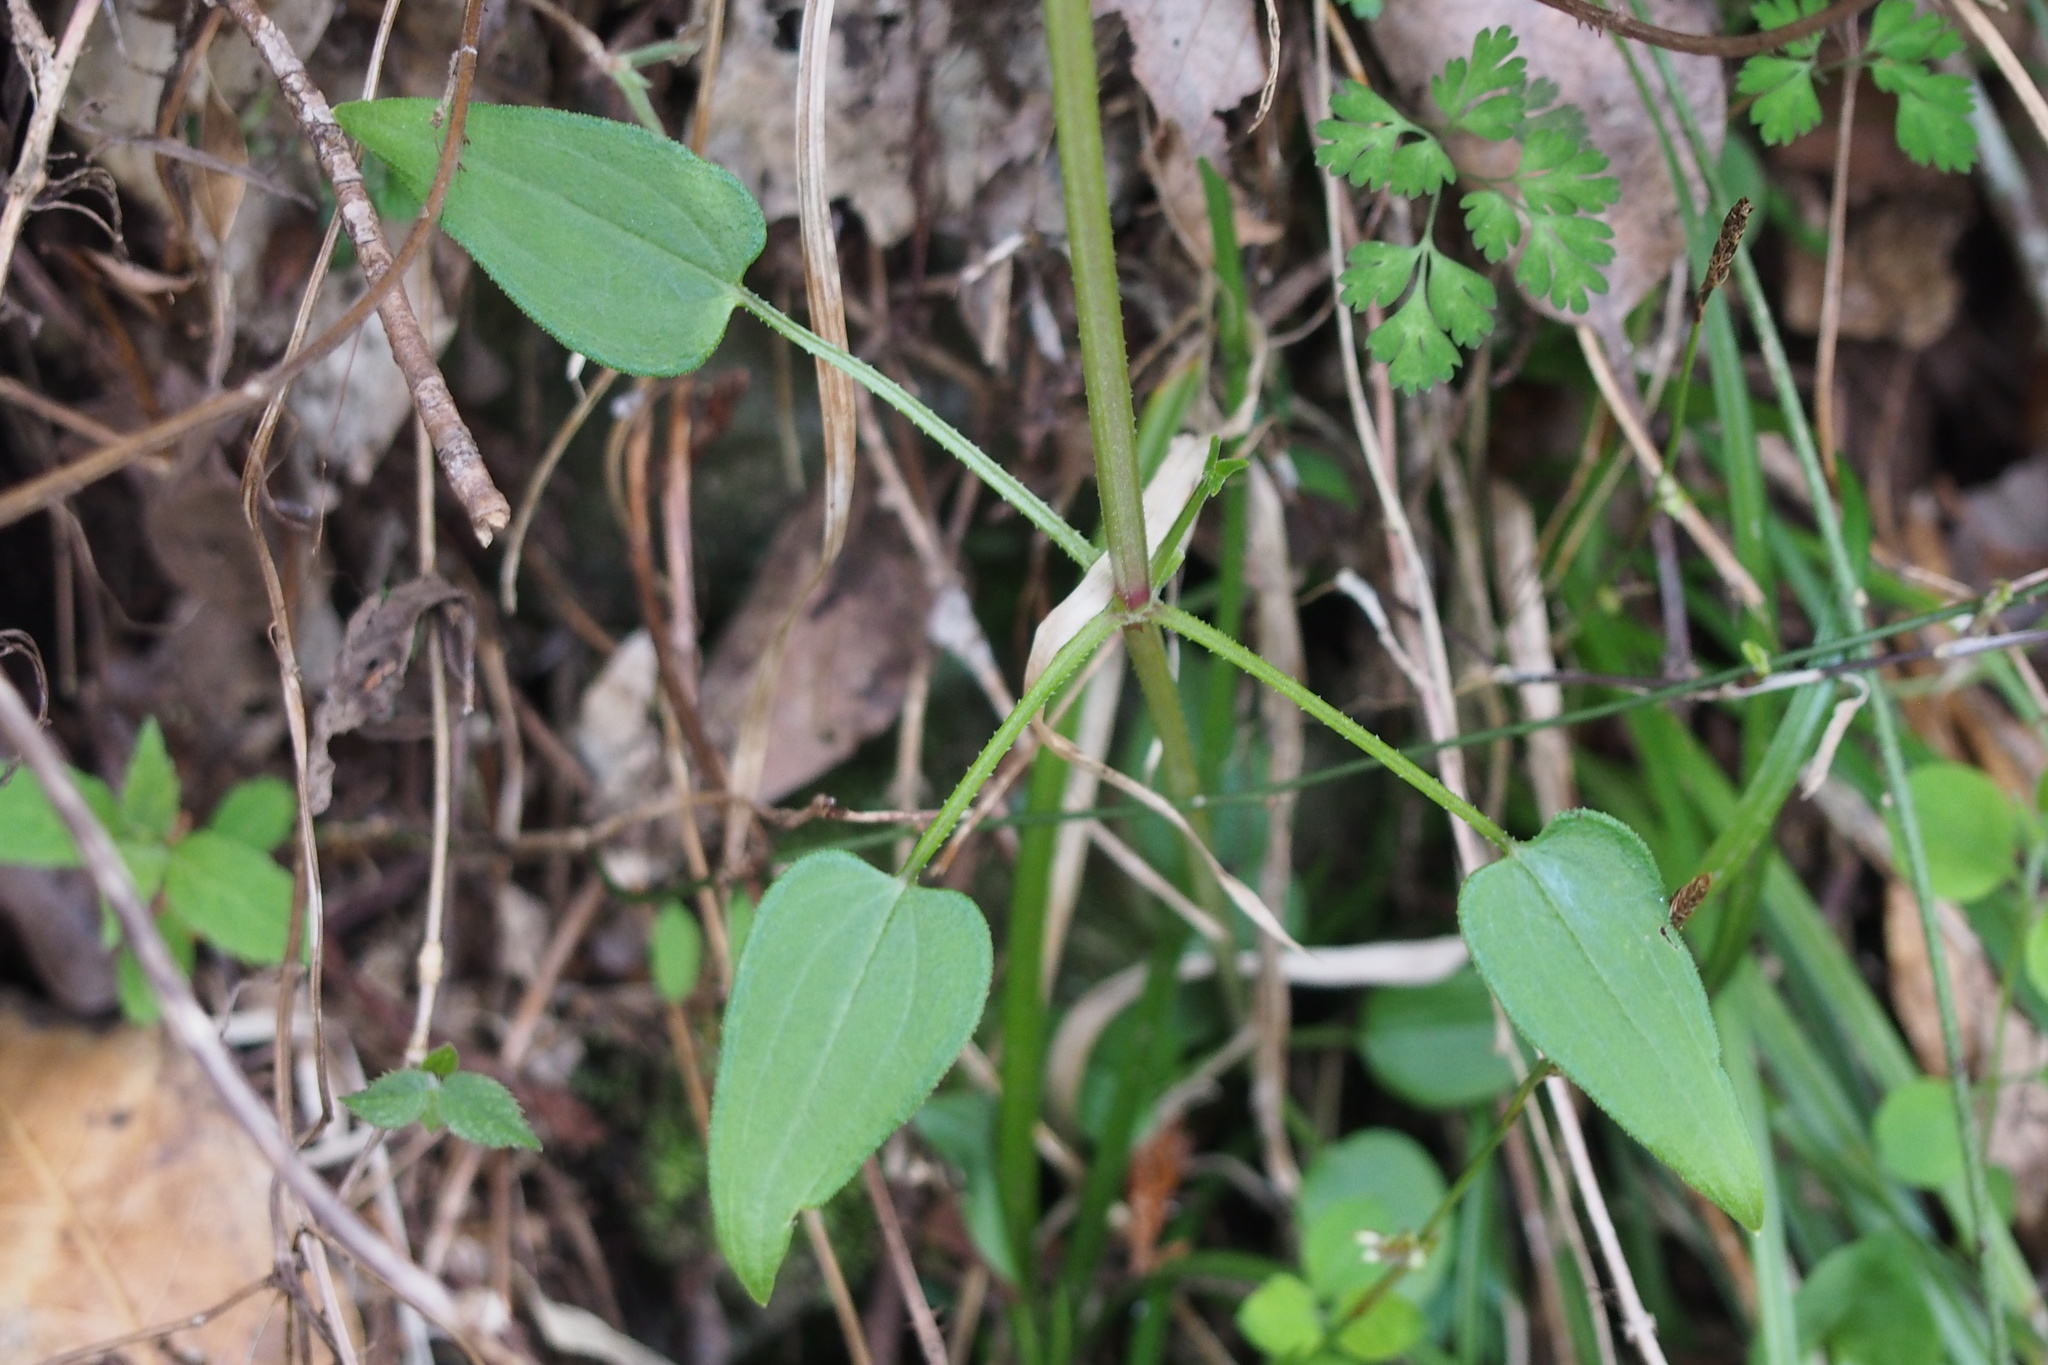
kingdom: Plantae
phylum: Tracheophyta
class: Magnoliopsida
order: Gentianales
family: Rubiaceae
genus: Rubia
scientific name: Rubia argyi
